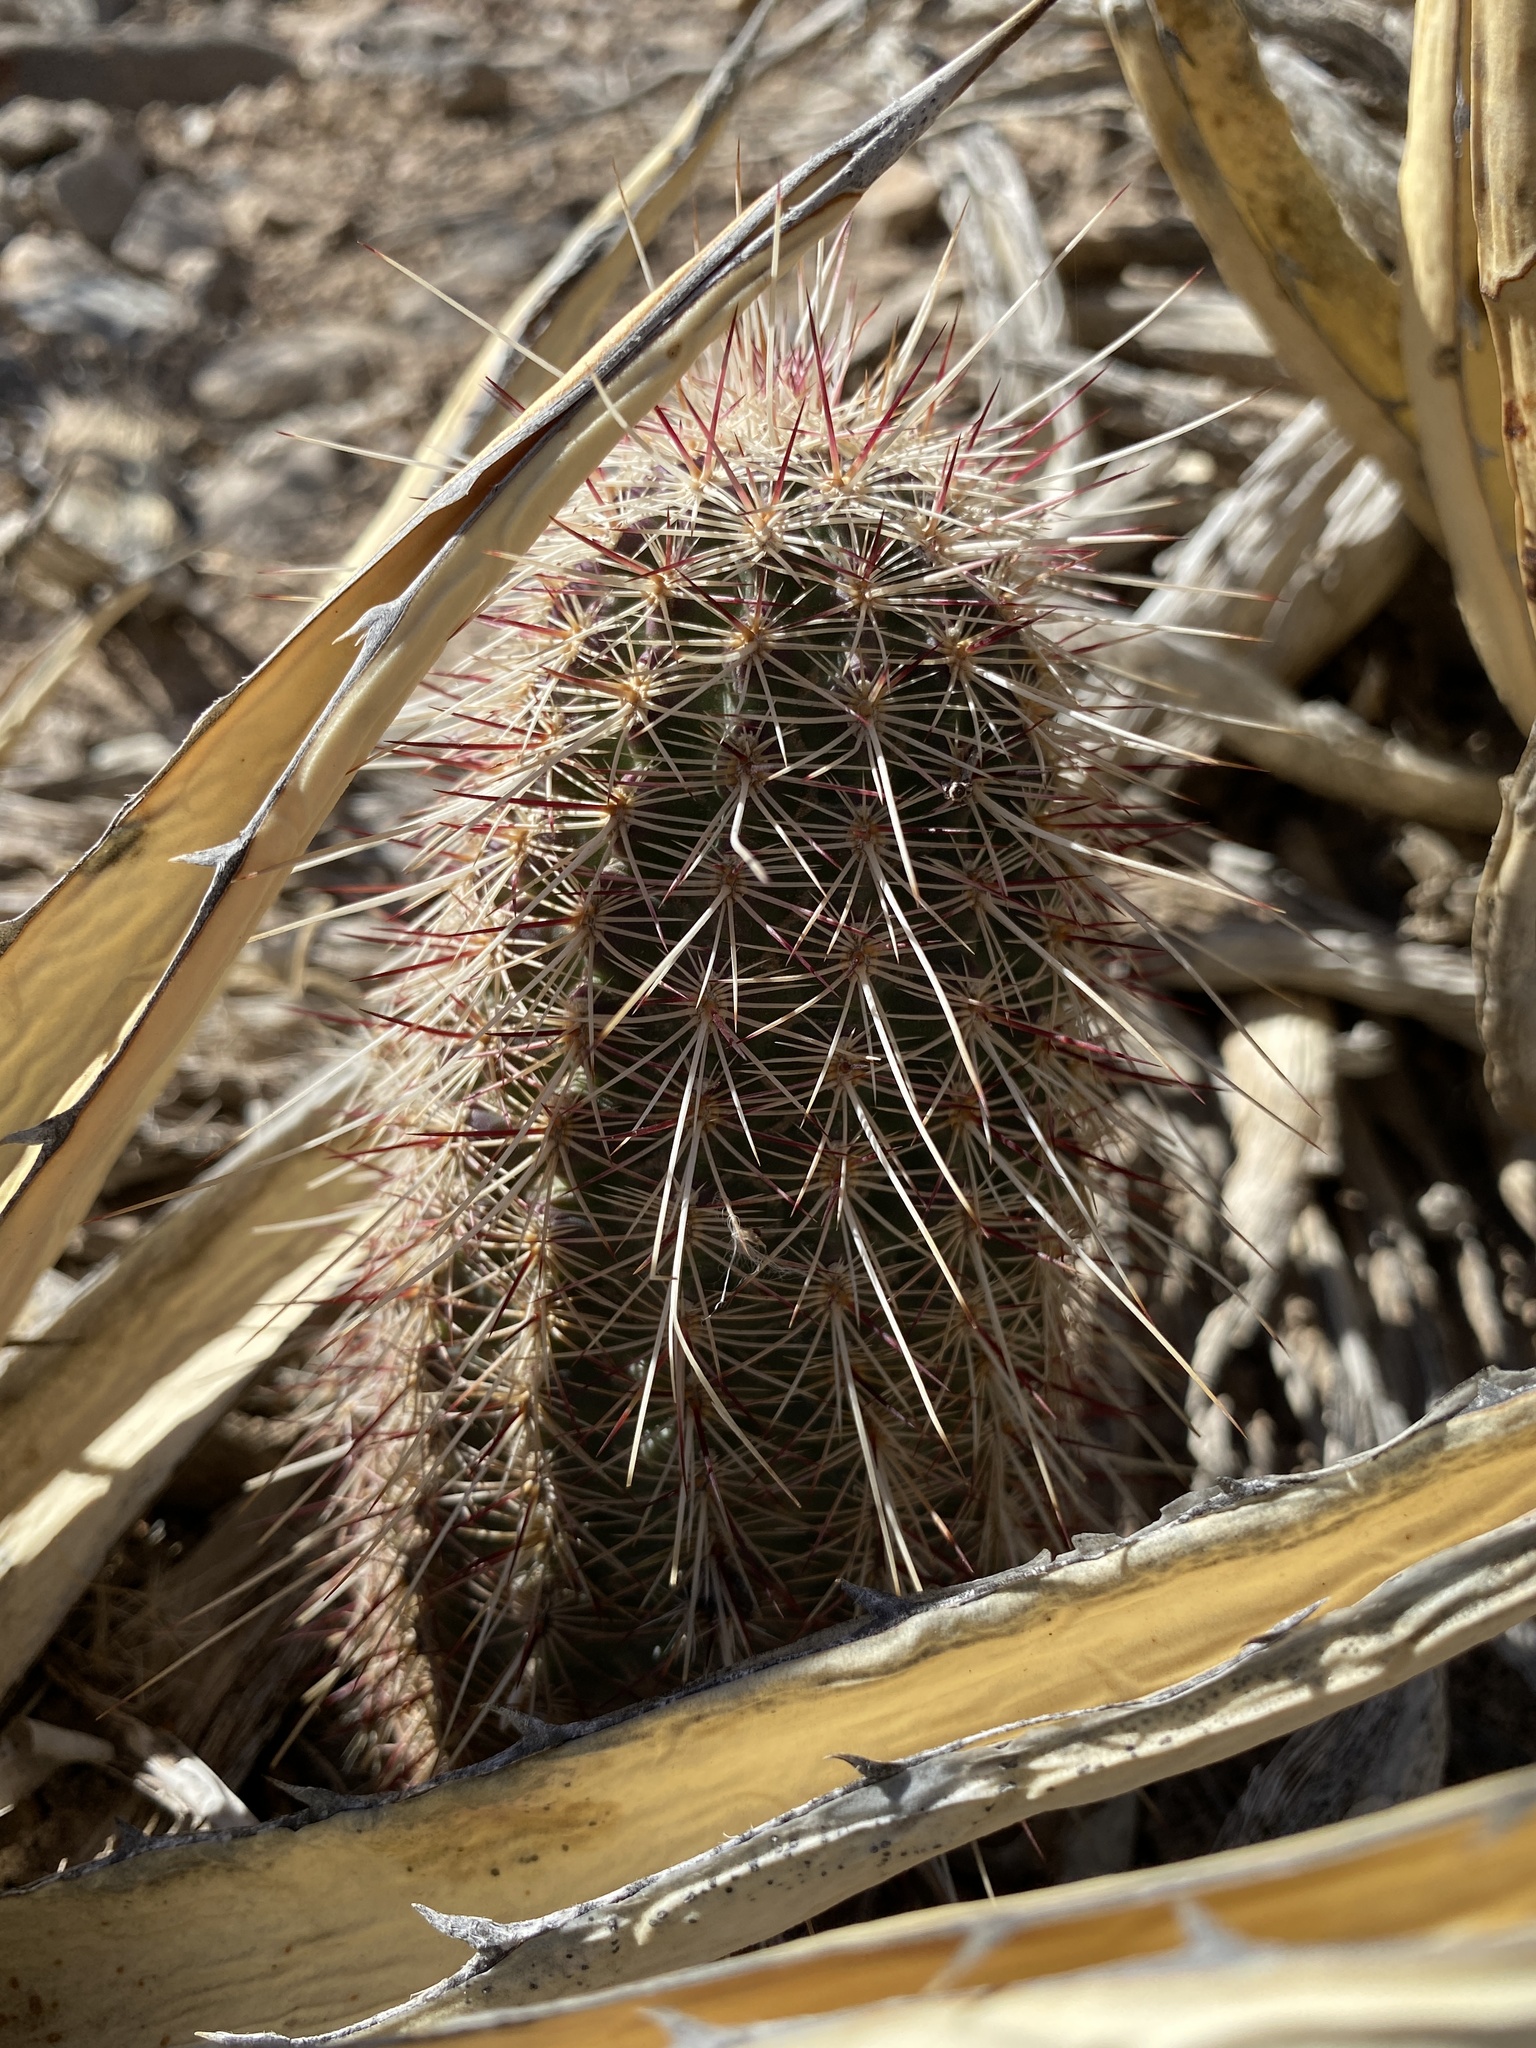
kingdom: Plantae
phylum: Tracheophyta
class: Magnoliopsida
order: Caryophyllales
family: Cactaceae
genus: Echinocereus
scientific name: Echinocereus viridiflorus
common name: Nylon hedgehog cactus
